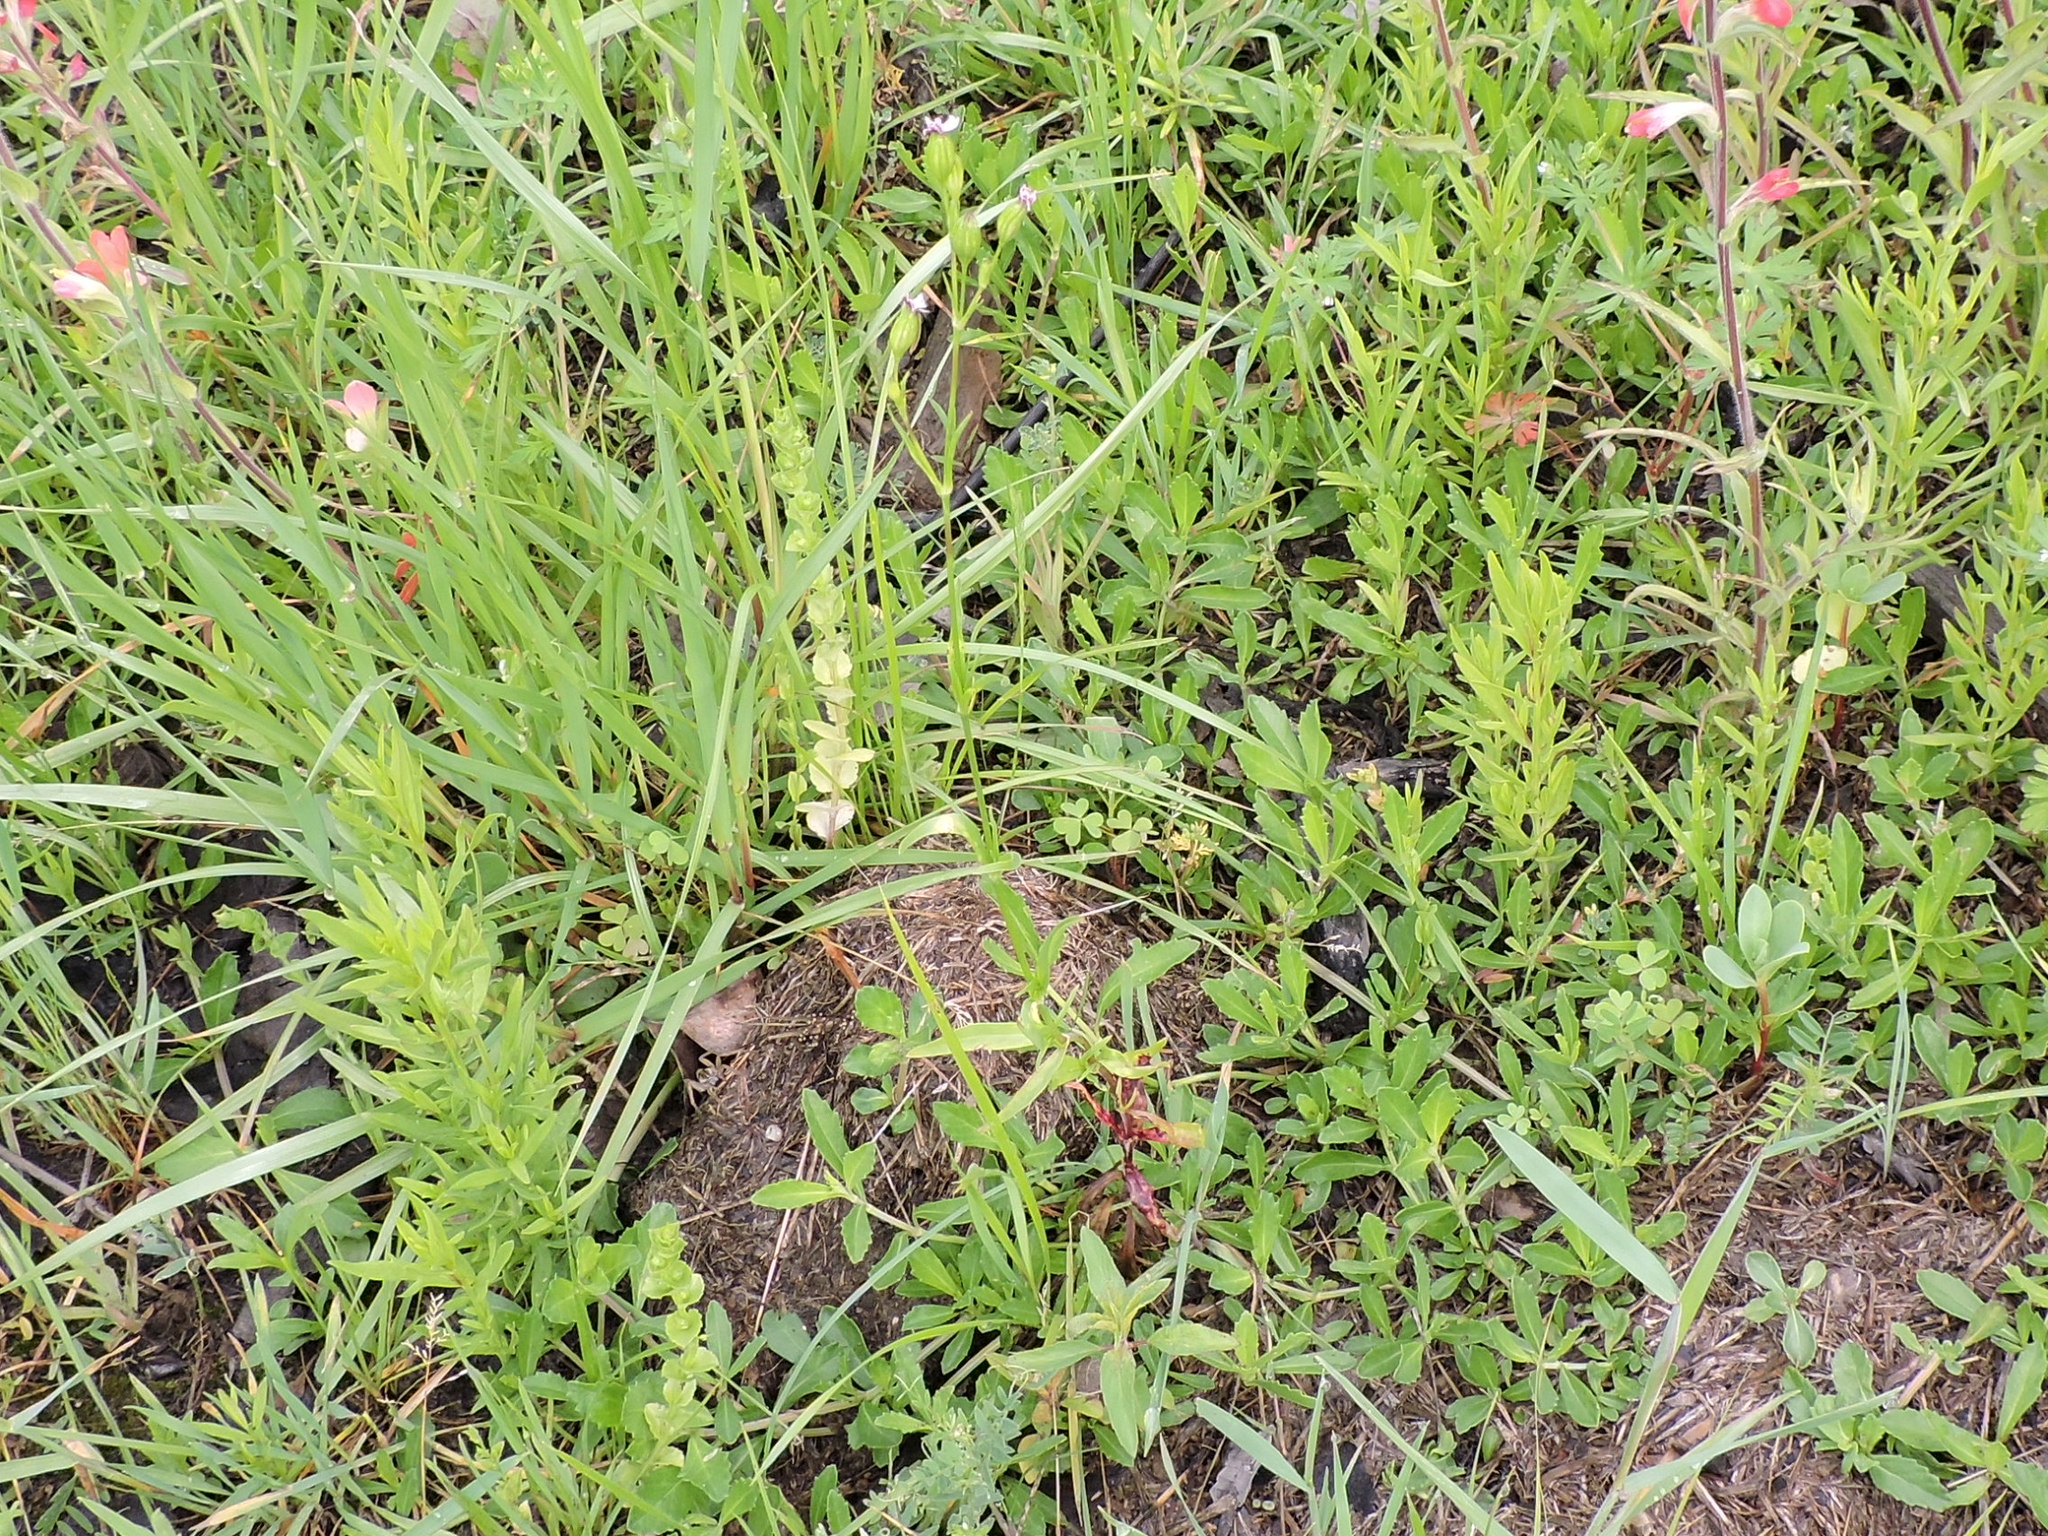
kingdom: Plantae
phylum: Tracheophyta
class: Magnoliopsida
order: Caryophyllales
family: Caryophyllaceae
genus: Silene
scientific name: Silene antirrhina
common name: Sleepy catchfly
